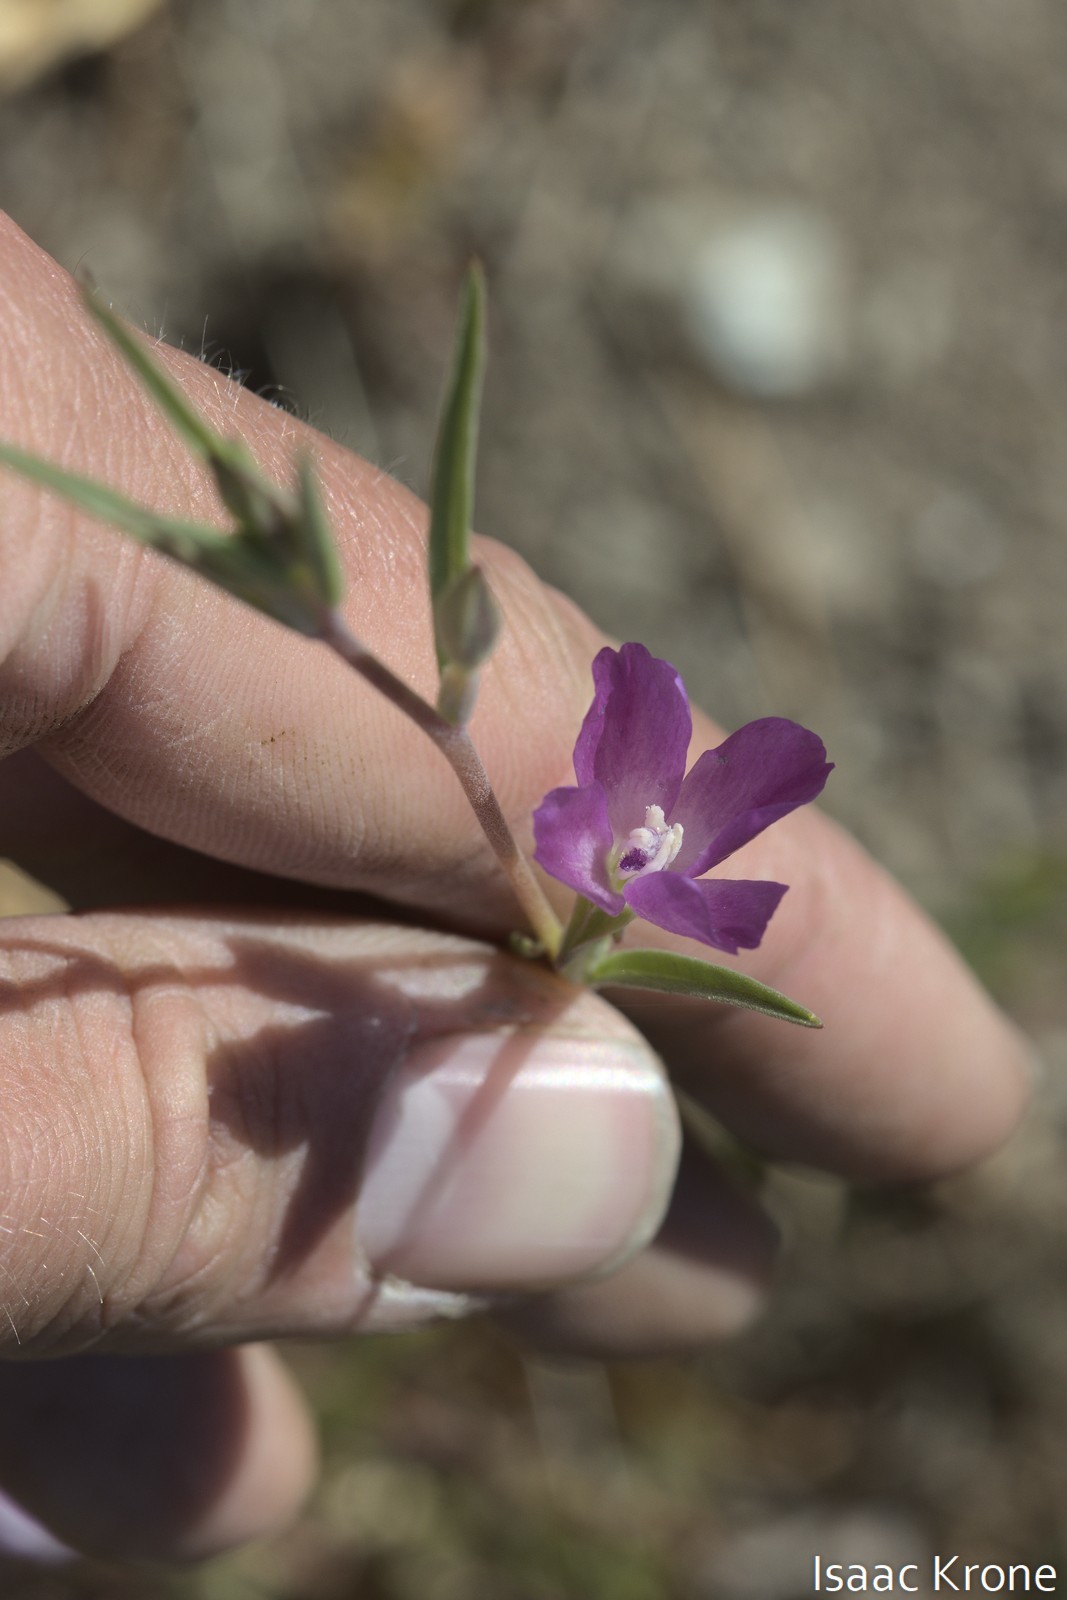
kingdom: Plantae
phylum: Tracheophyta
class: Magnoliopsida
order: Myrtales
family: Onagraceae
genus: Clarkia
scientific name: Clarkia purpurea
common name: Purple clarkia
